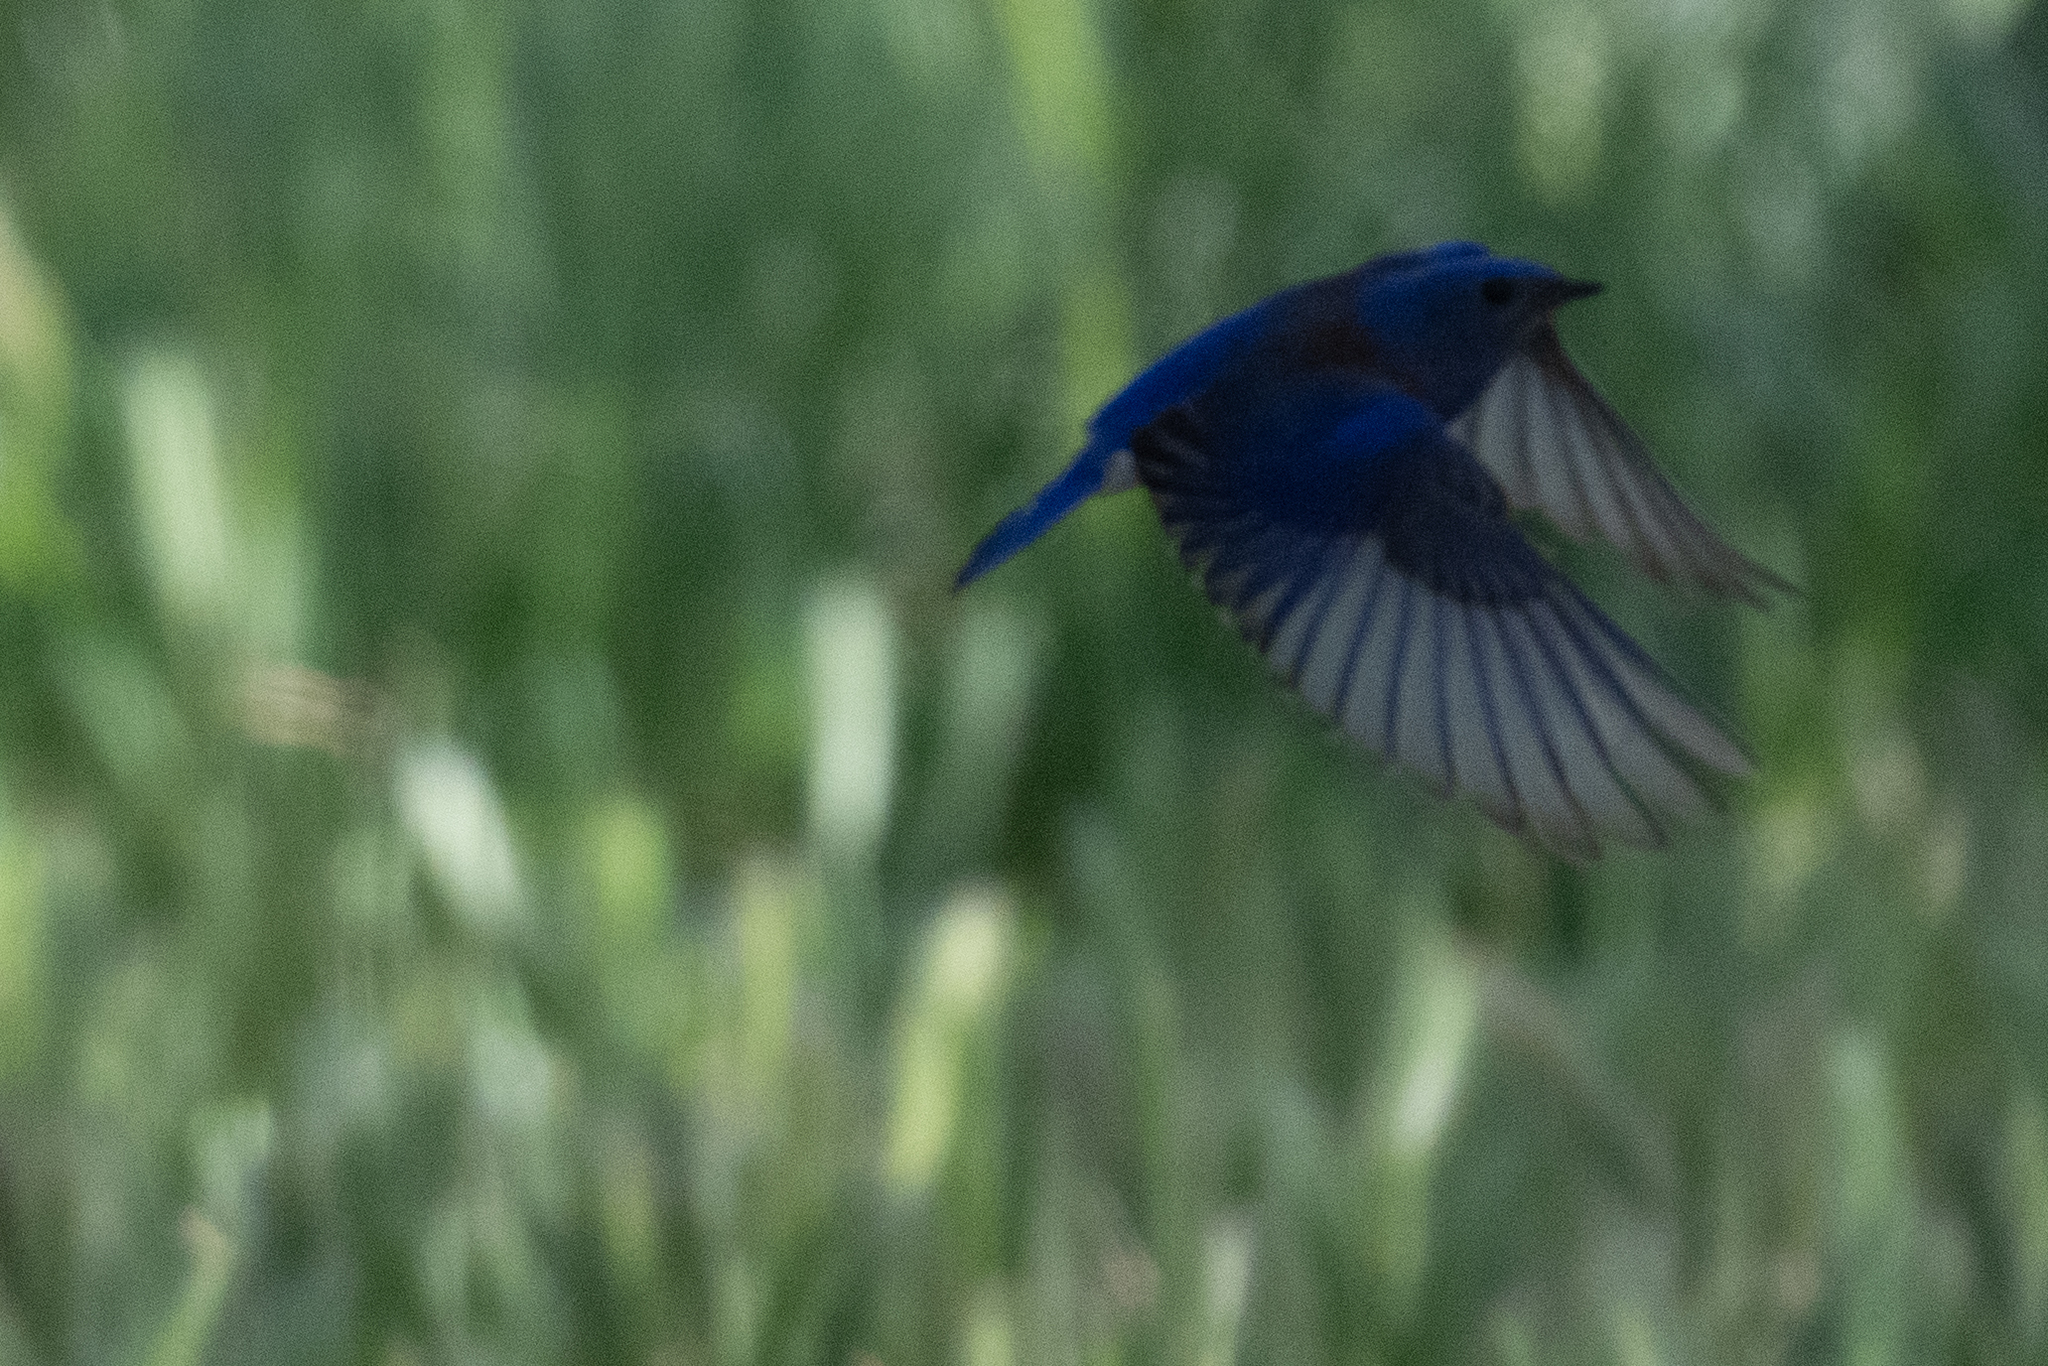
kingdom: Animalia
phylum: Chordata
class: Aves
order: Passeriformes
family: Turdidae
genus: Sialia
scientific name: Sialia mexicana
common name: Western bluebird
